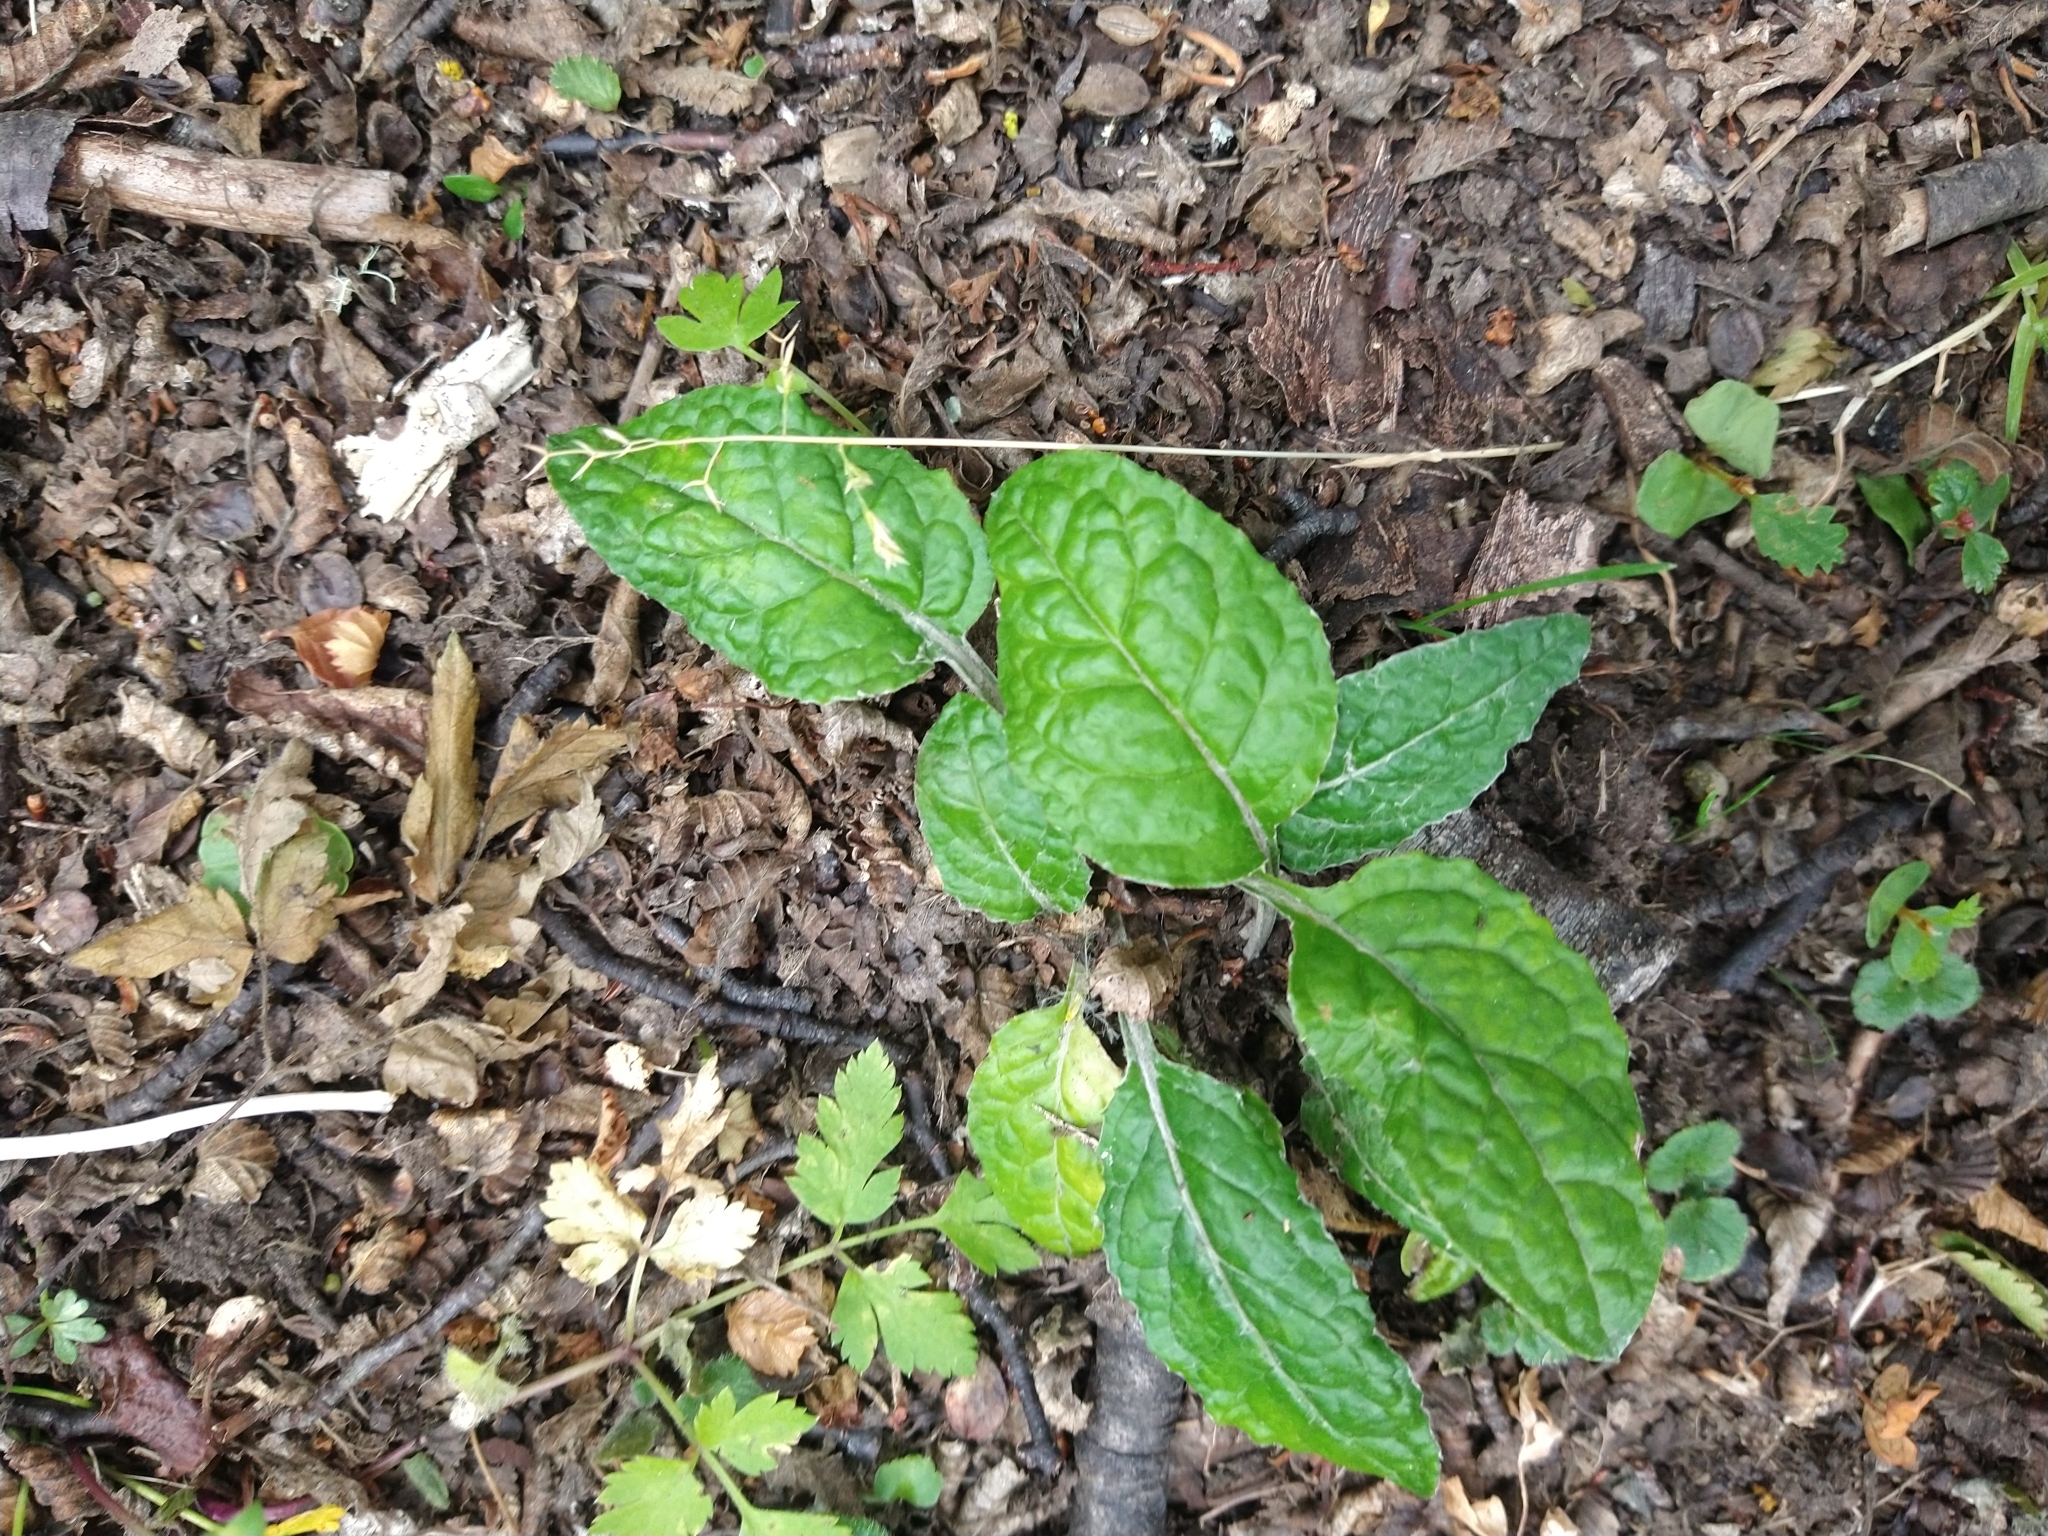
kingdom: Plantae
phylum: Tracheophyta
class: Magnoliopsida
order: Asterales
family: Asteraceae
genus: Adenocaulon
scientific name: Adenocaulon chilense
